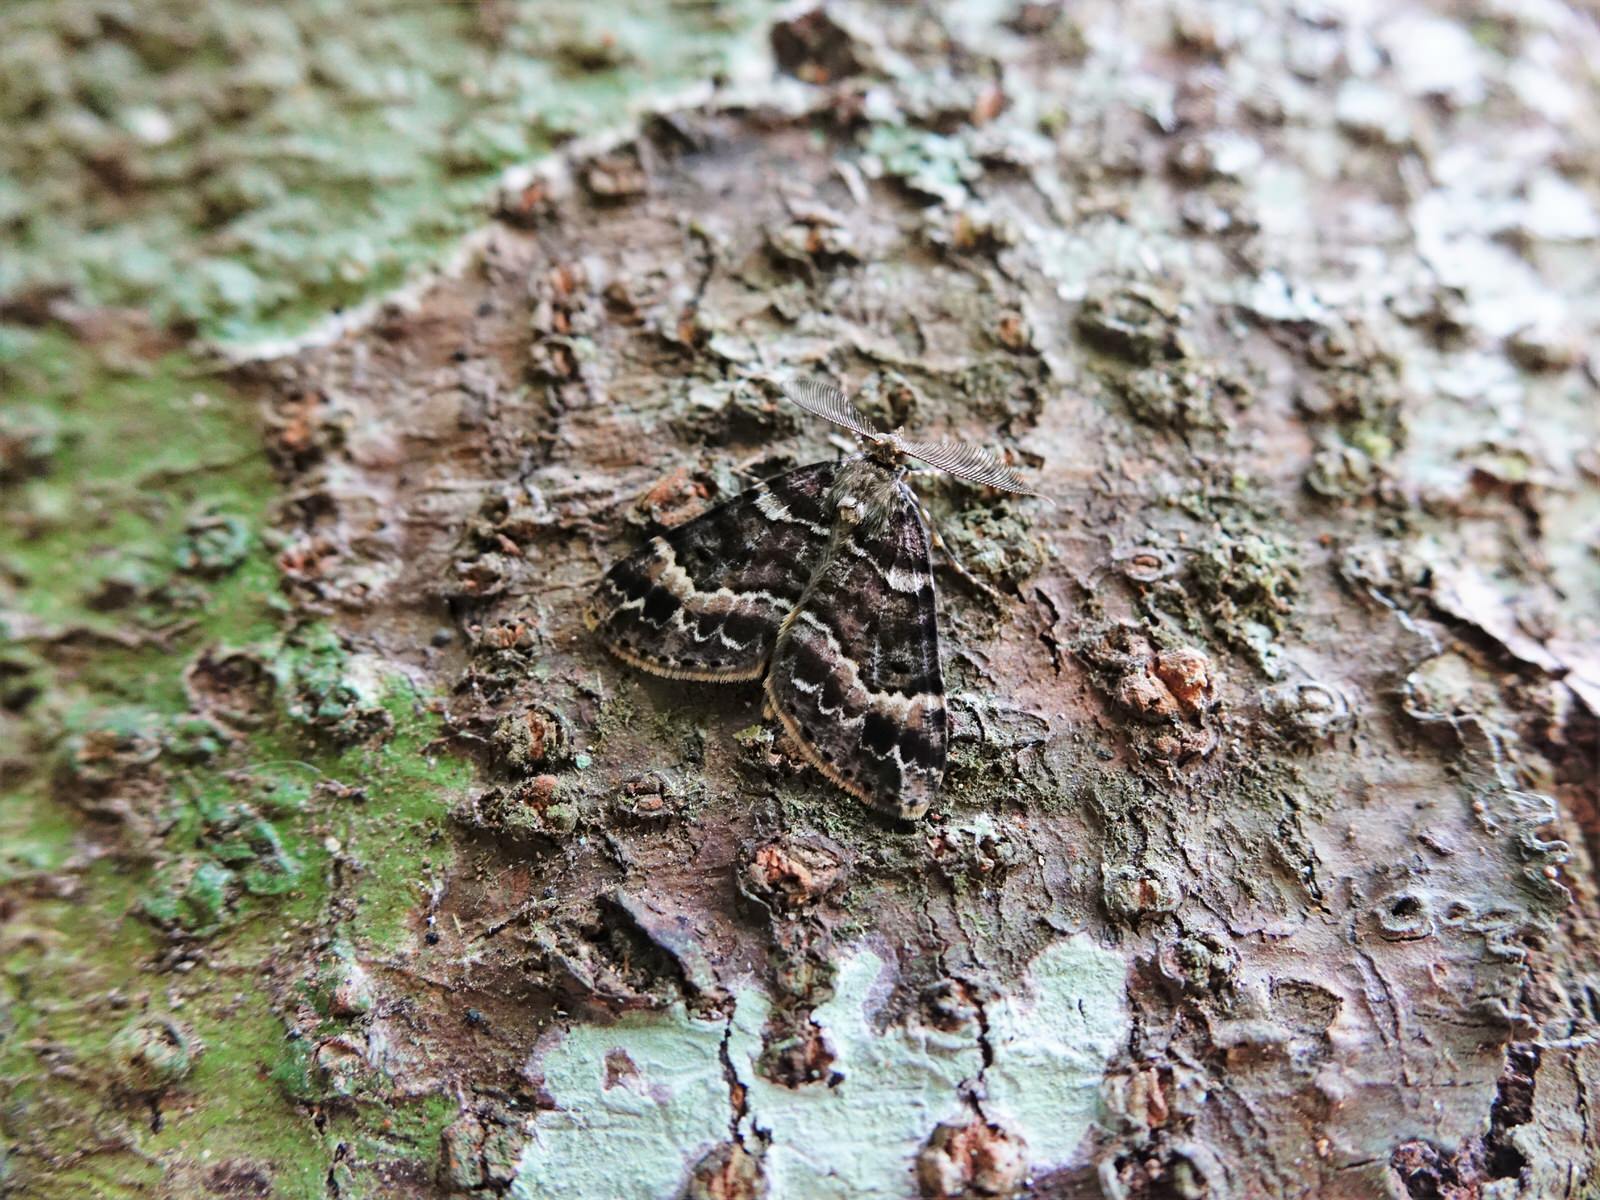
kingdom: Animalia
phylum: Arthropoda
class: Insecta
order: Lepidoptera
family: Geometridae
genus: Pseudocoremia
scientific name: Pseudocoremia productata
